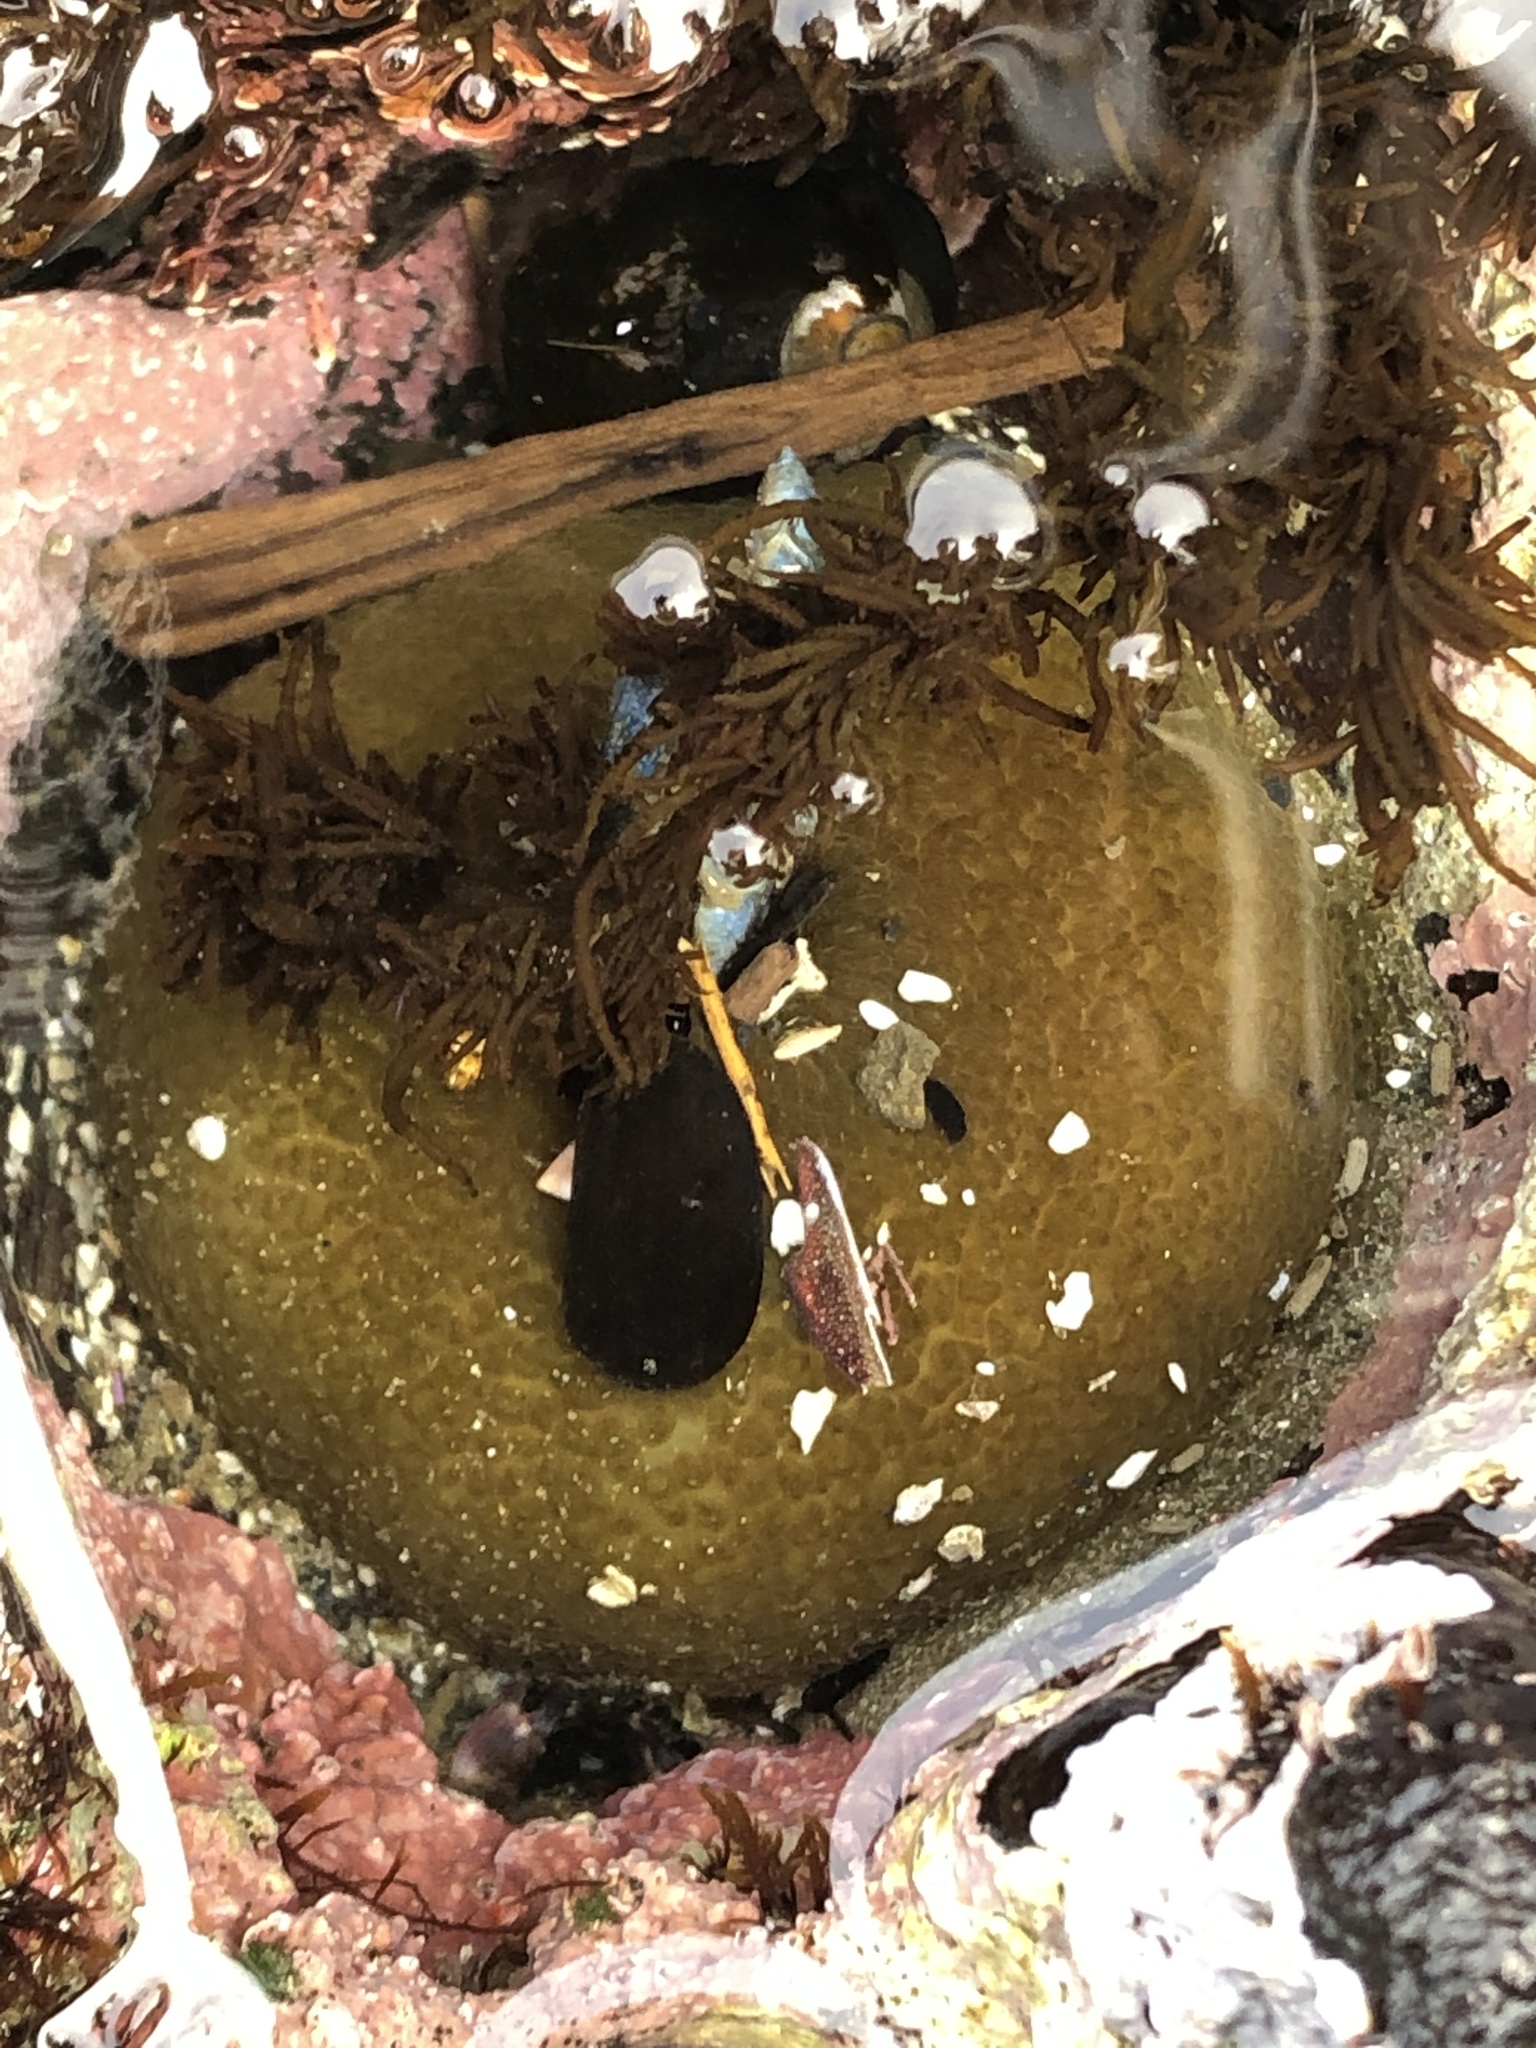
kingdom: Animalia
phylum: Cnidaria
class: Anthozoa
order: Actiniaria
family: Actiniidae
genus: Anthopleura
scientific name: Anthopleura xanthogrammica
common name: Giant green anemone
